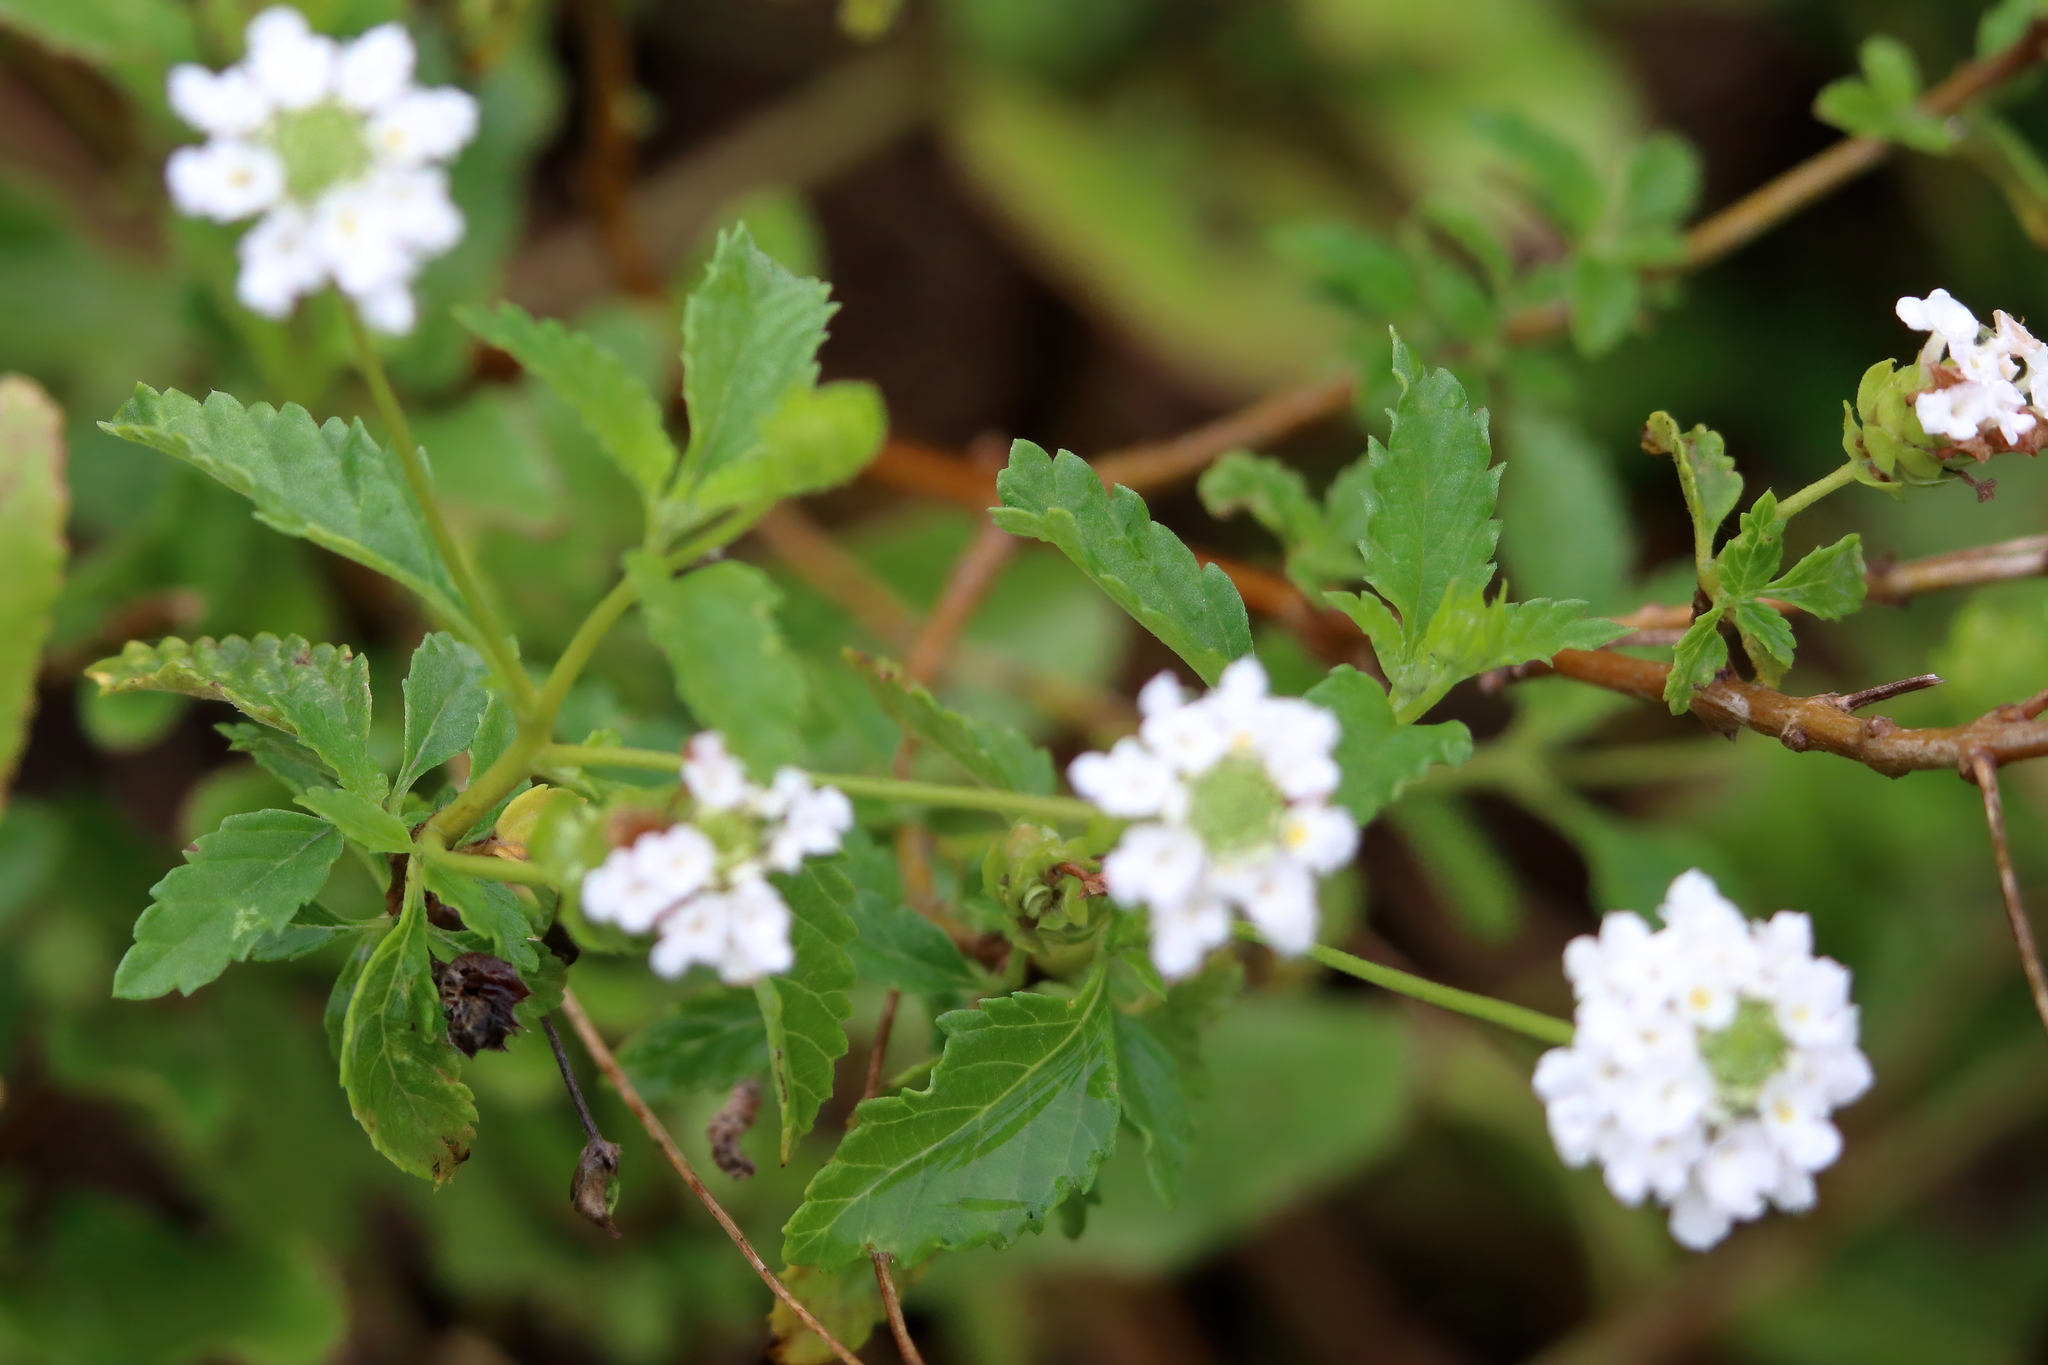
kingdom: Plantae
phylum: Tracheophyta
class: Magnoliopsida
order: Lamiales
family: Verbenaceae
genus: Lantana
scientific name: Lantana achyranthifolia
